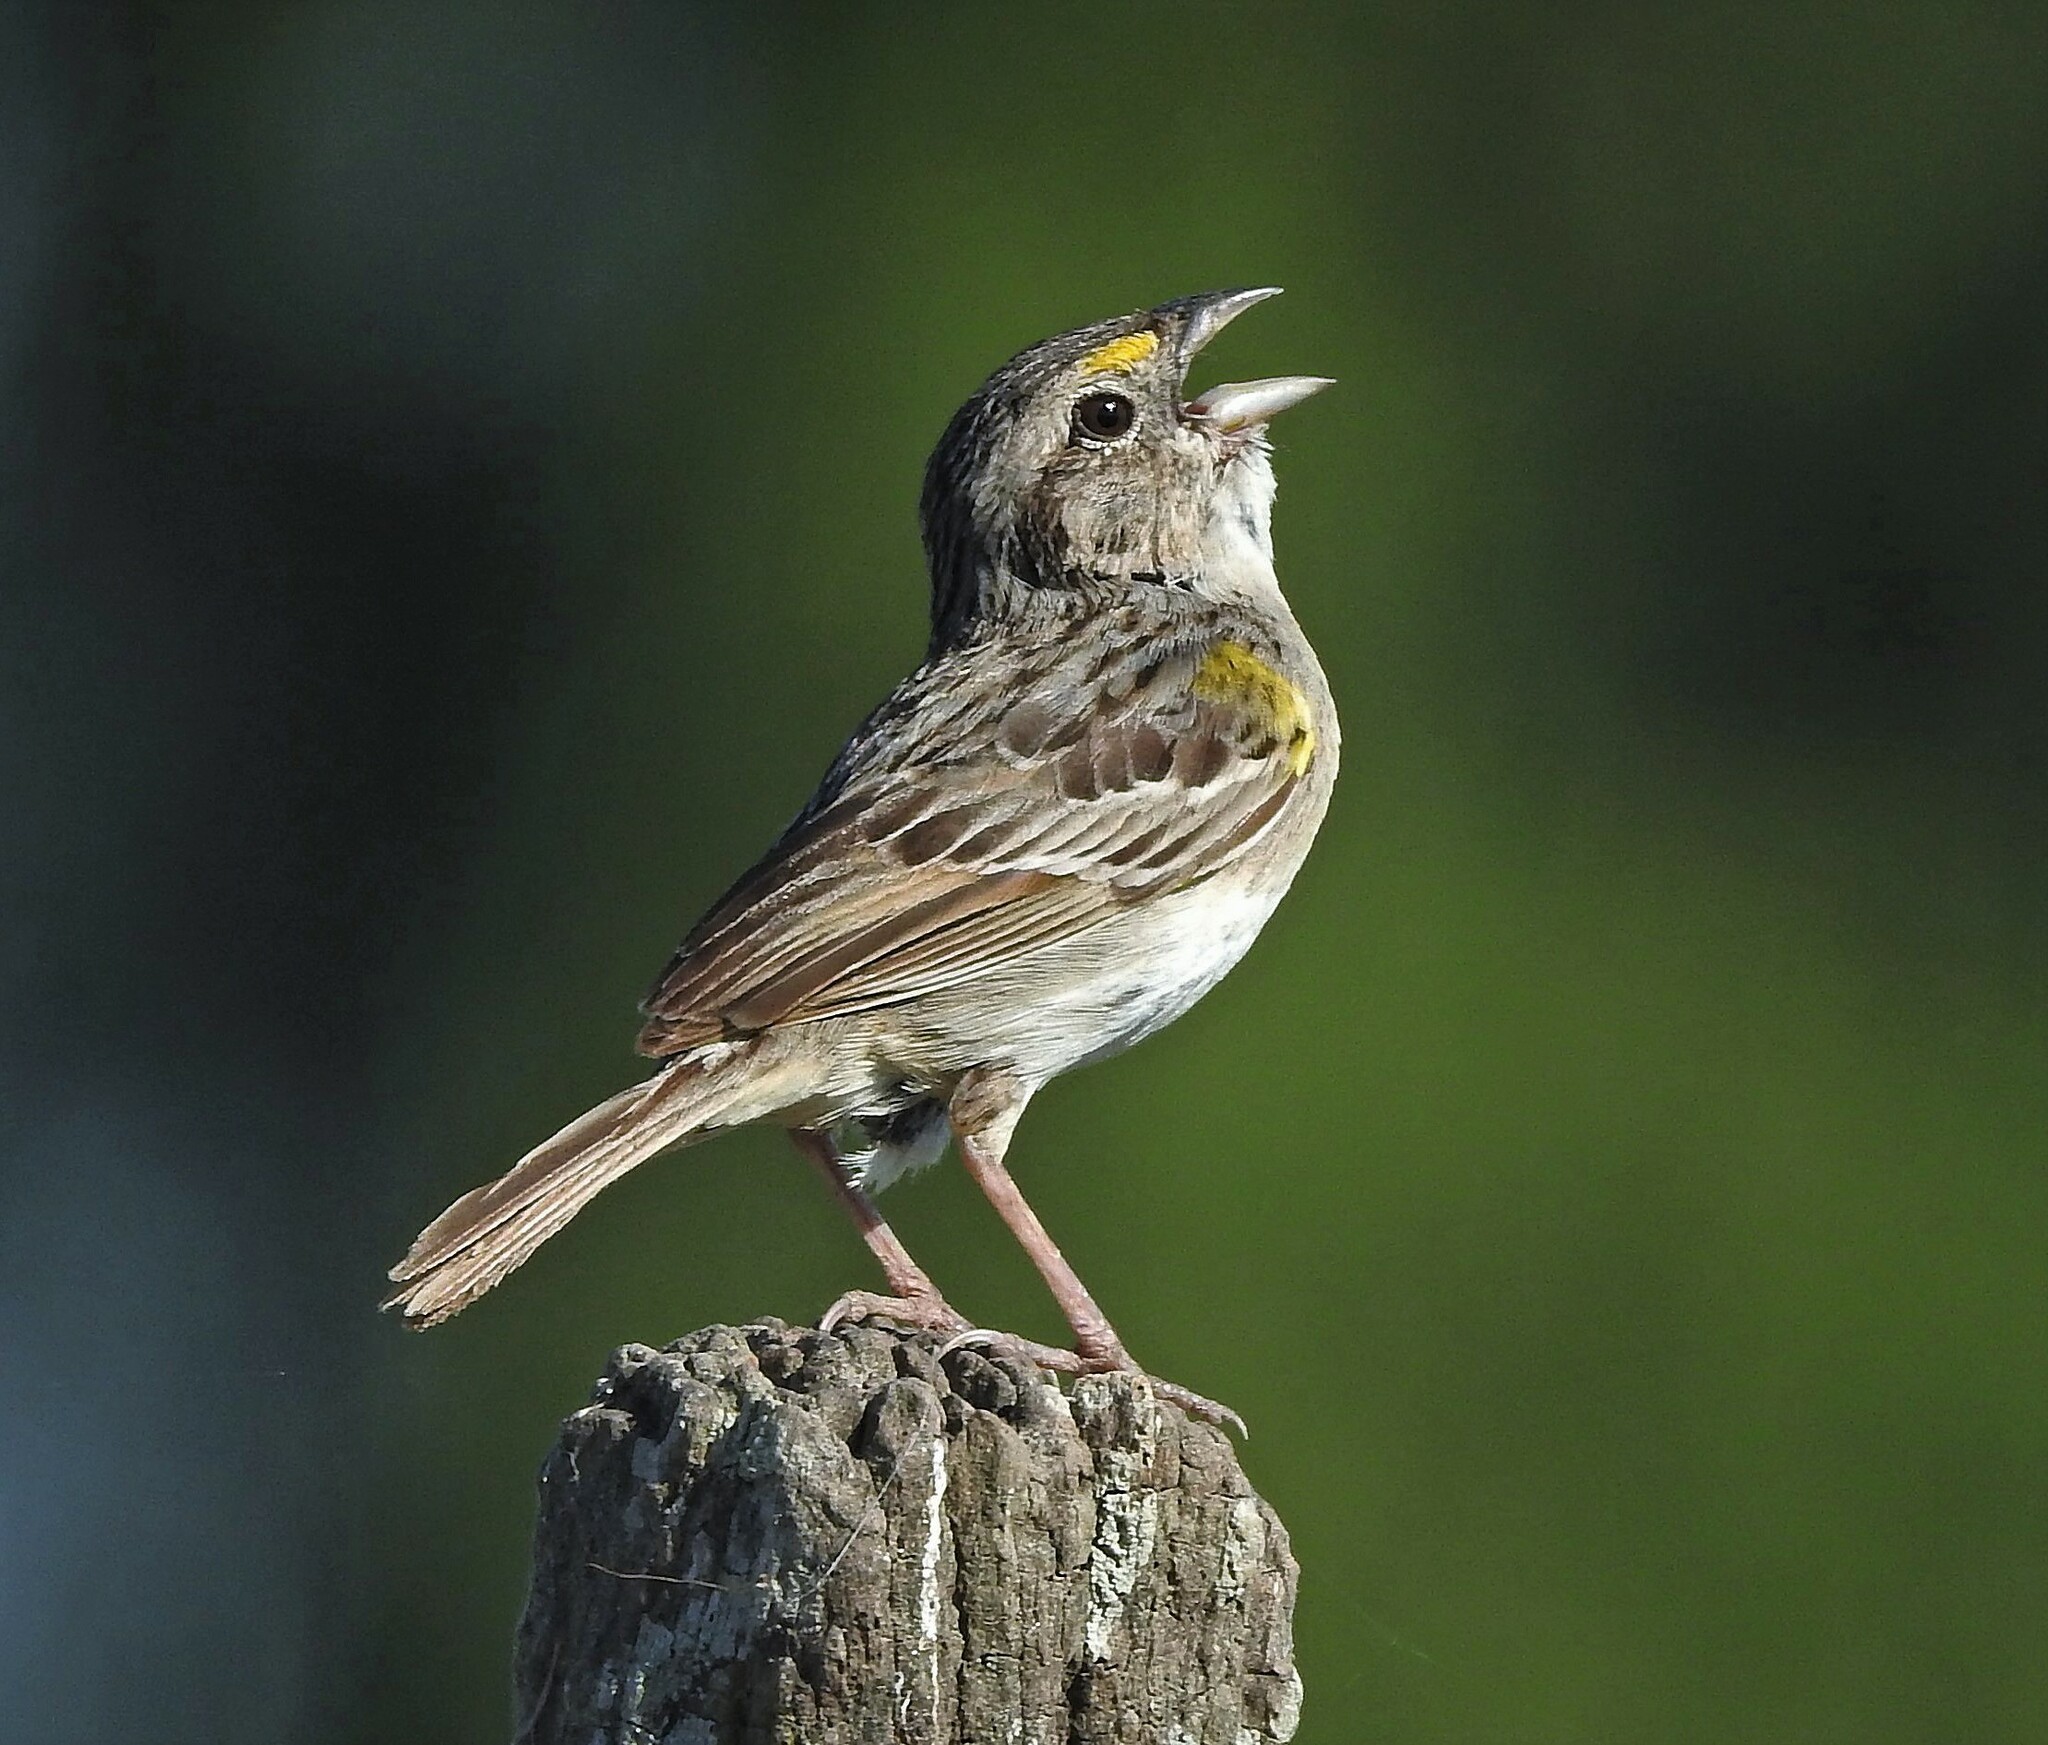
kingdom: Animalia
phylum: Chordata
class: Aves
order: Passeriformes
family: Passerellidae
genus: Ammodramus
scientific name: Ammodramus humeralis
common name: Grassland sparrow
